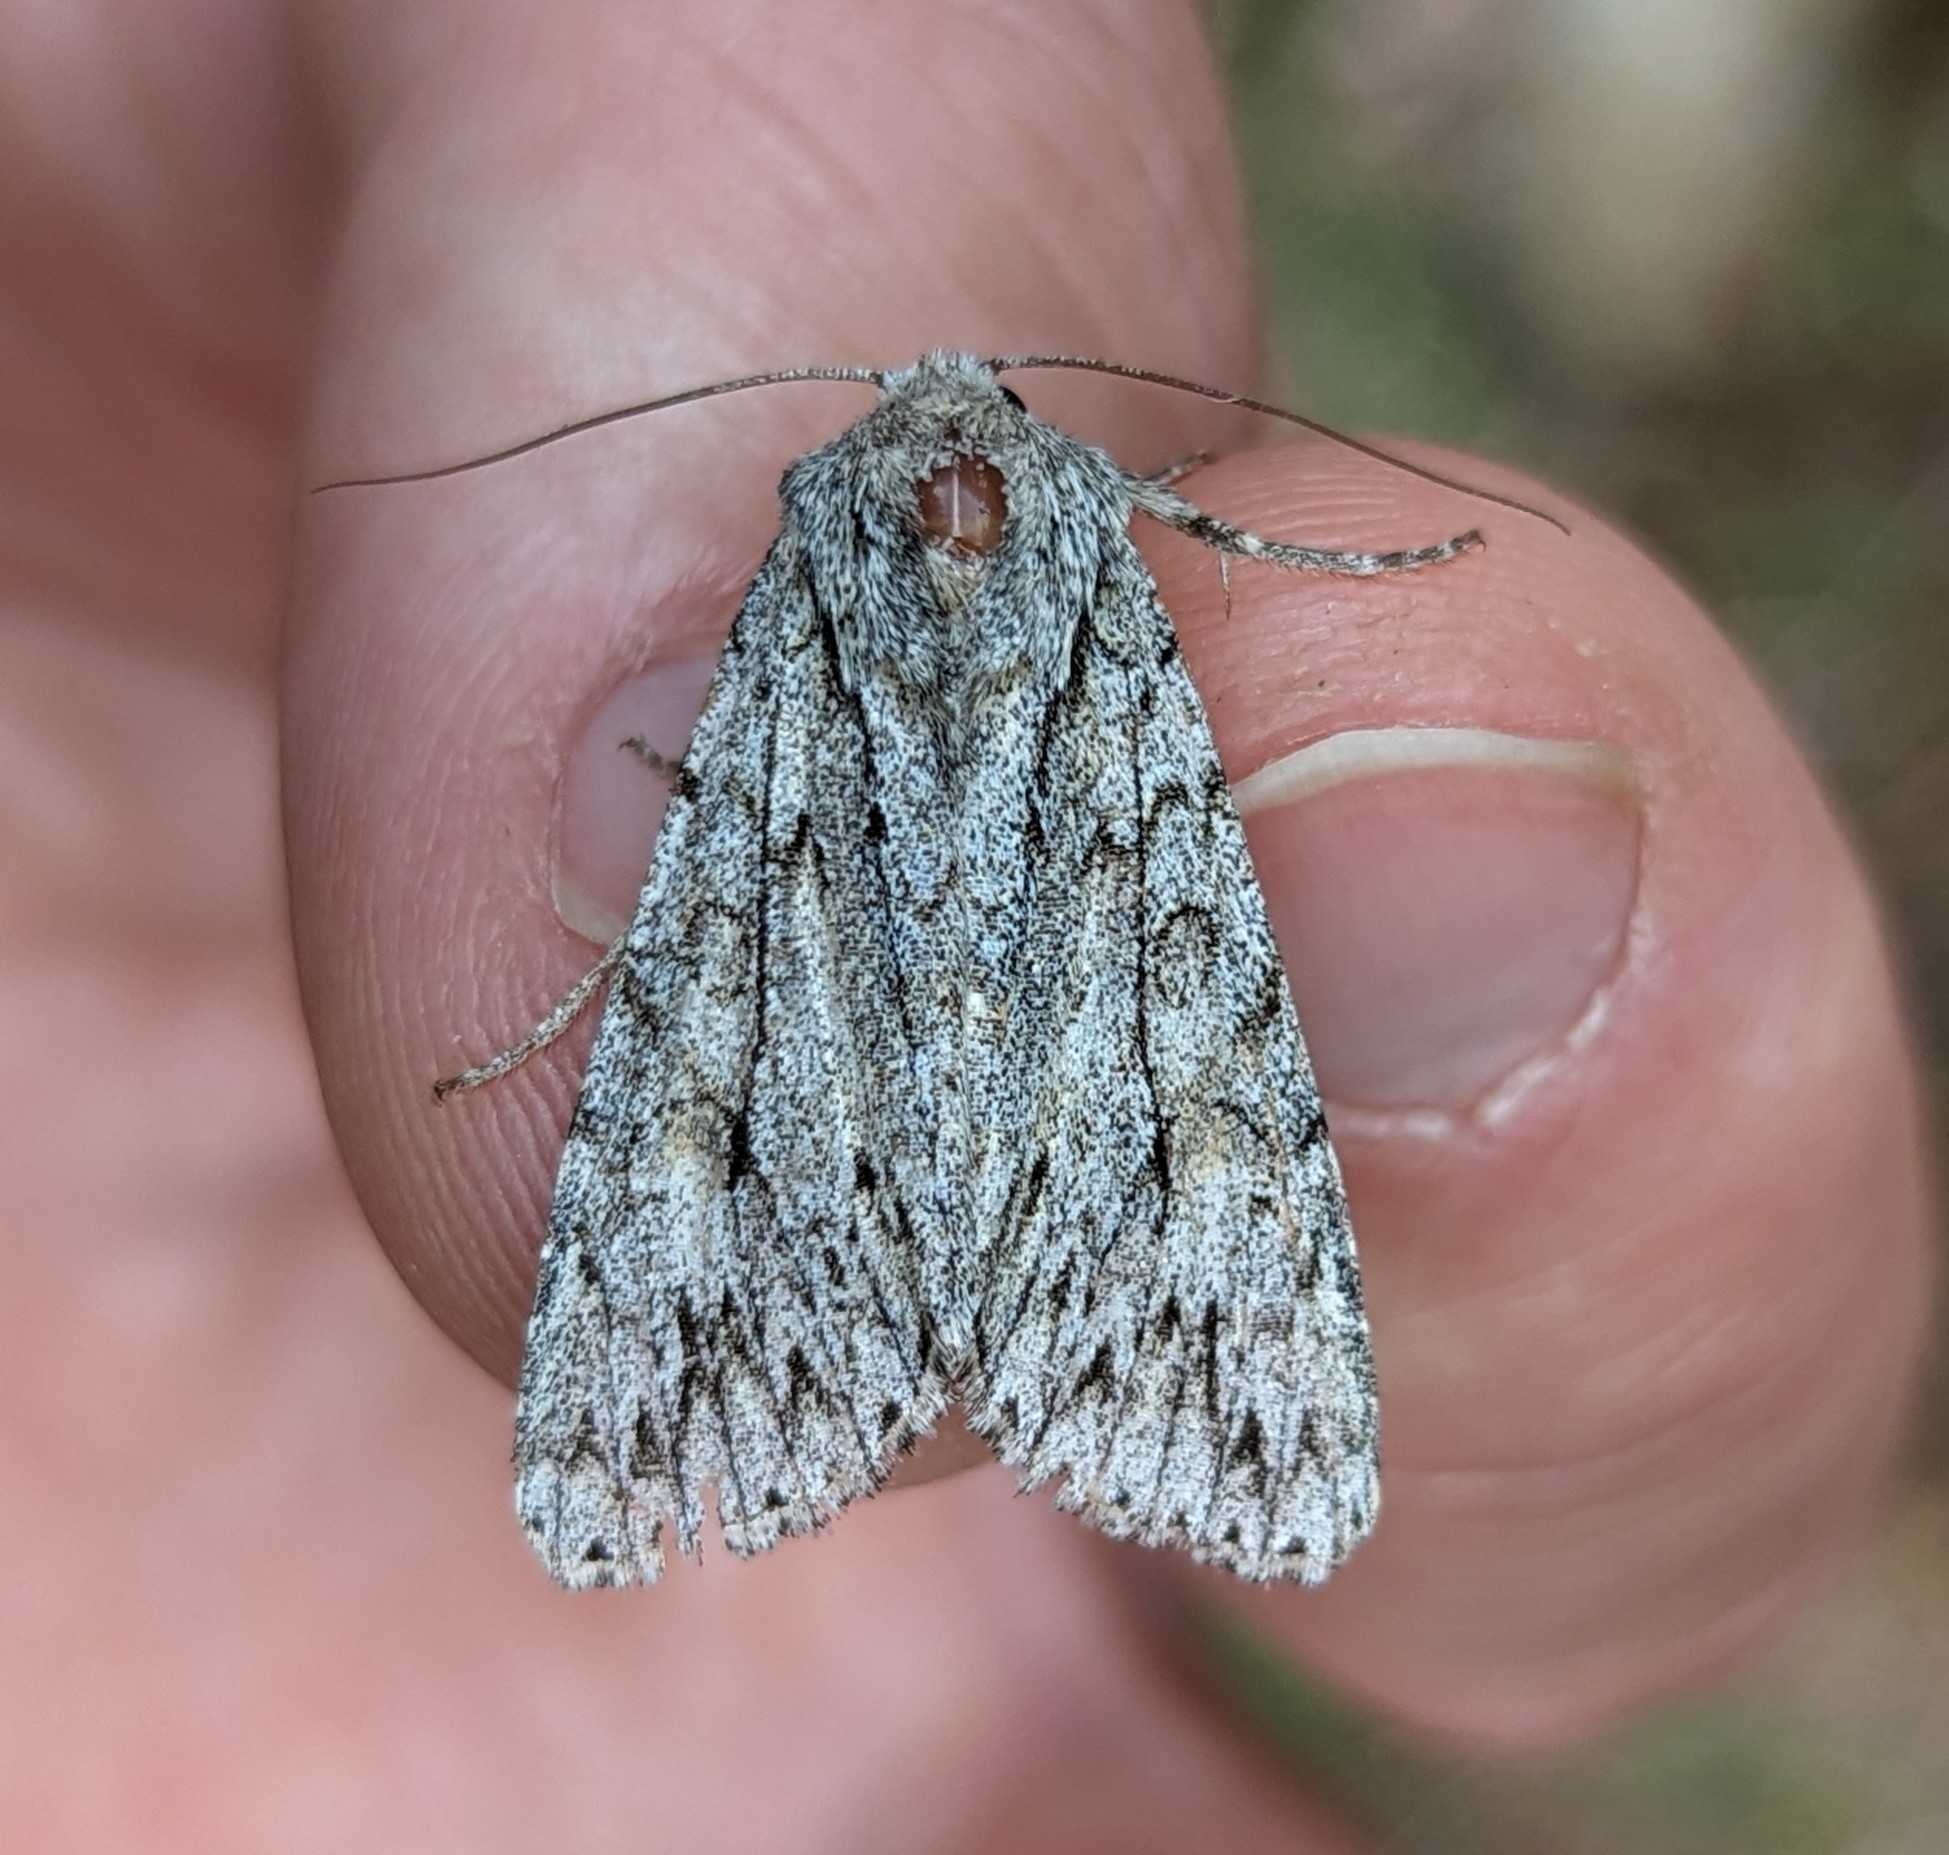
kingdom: Animalia
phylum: Arthropoda
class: Insecta
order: Lepidoptera
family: Noctuidae
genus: Andropolia
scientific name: Andropolia aedon
